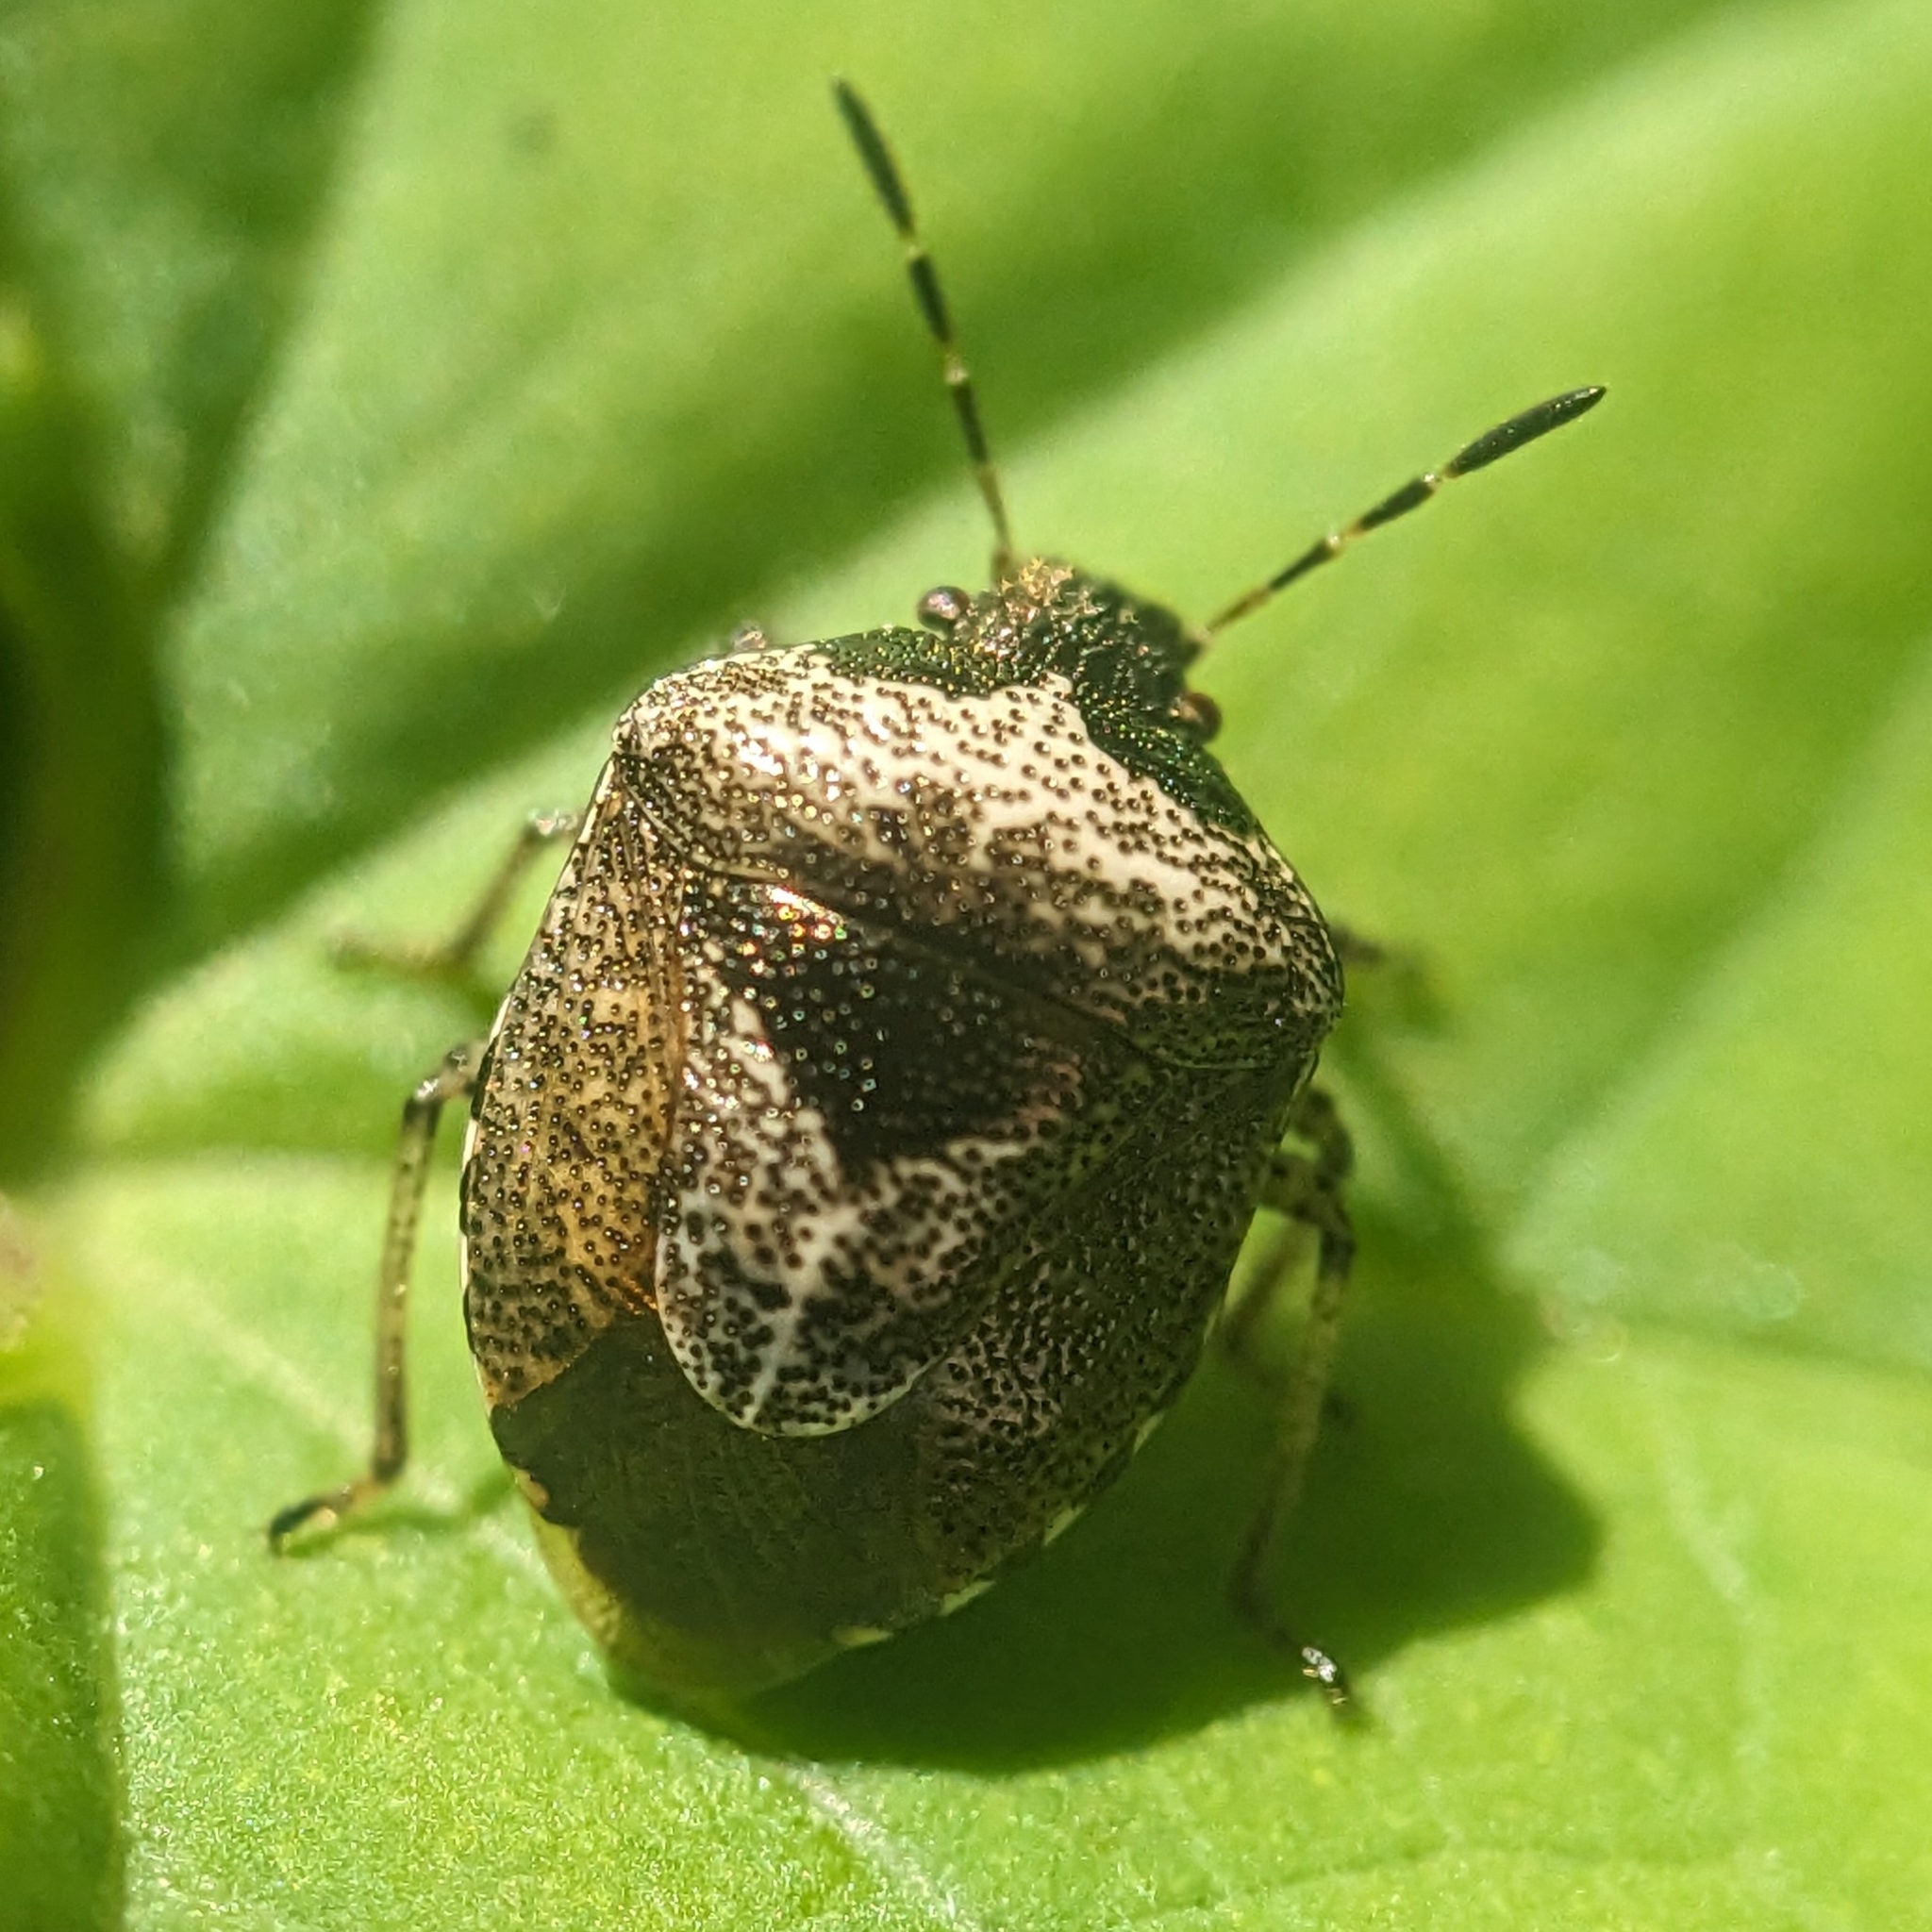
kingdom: Animalia
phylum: Arthropoda
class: Insecta
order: Hemiptera
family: Pentatomidae
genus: Eysarcoris
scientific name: Eysarcoris venustissimus
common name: Woundwort shieldbug
